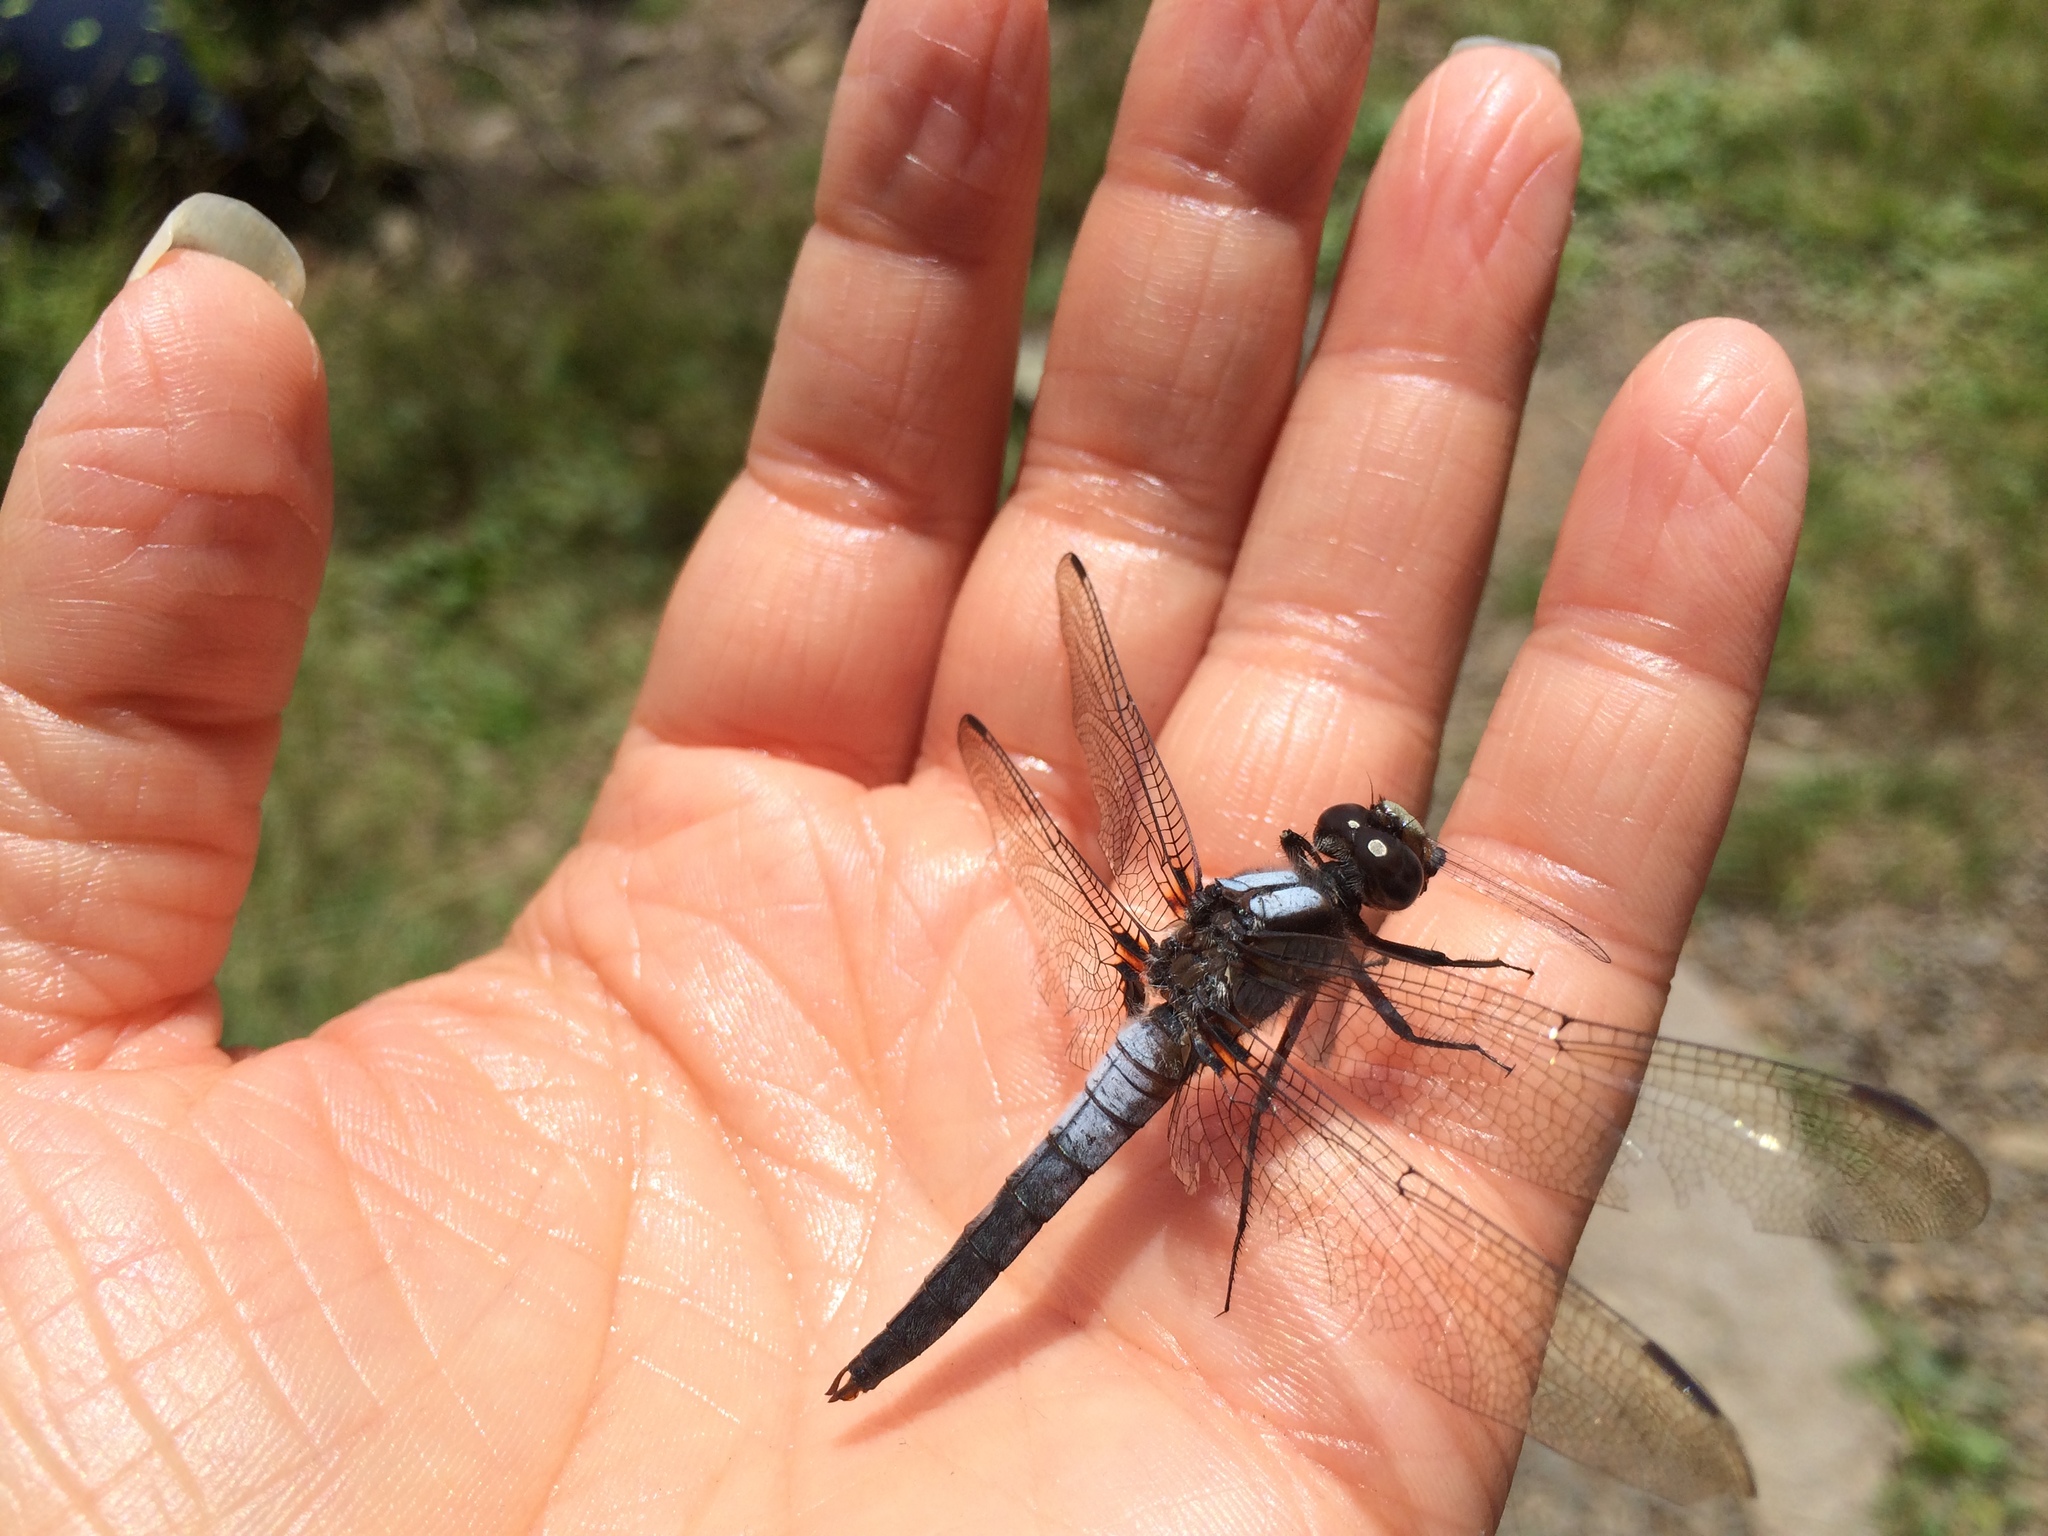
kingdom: Animalia
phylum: Arthropoda
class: Insecta
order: Odonata
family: Libellulidae
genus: Ladona
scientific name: Ladona julia
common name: Chalk-fronted corporal
